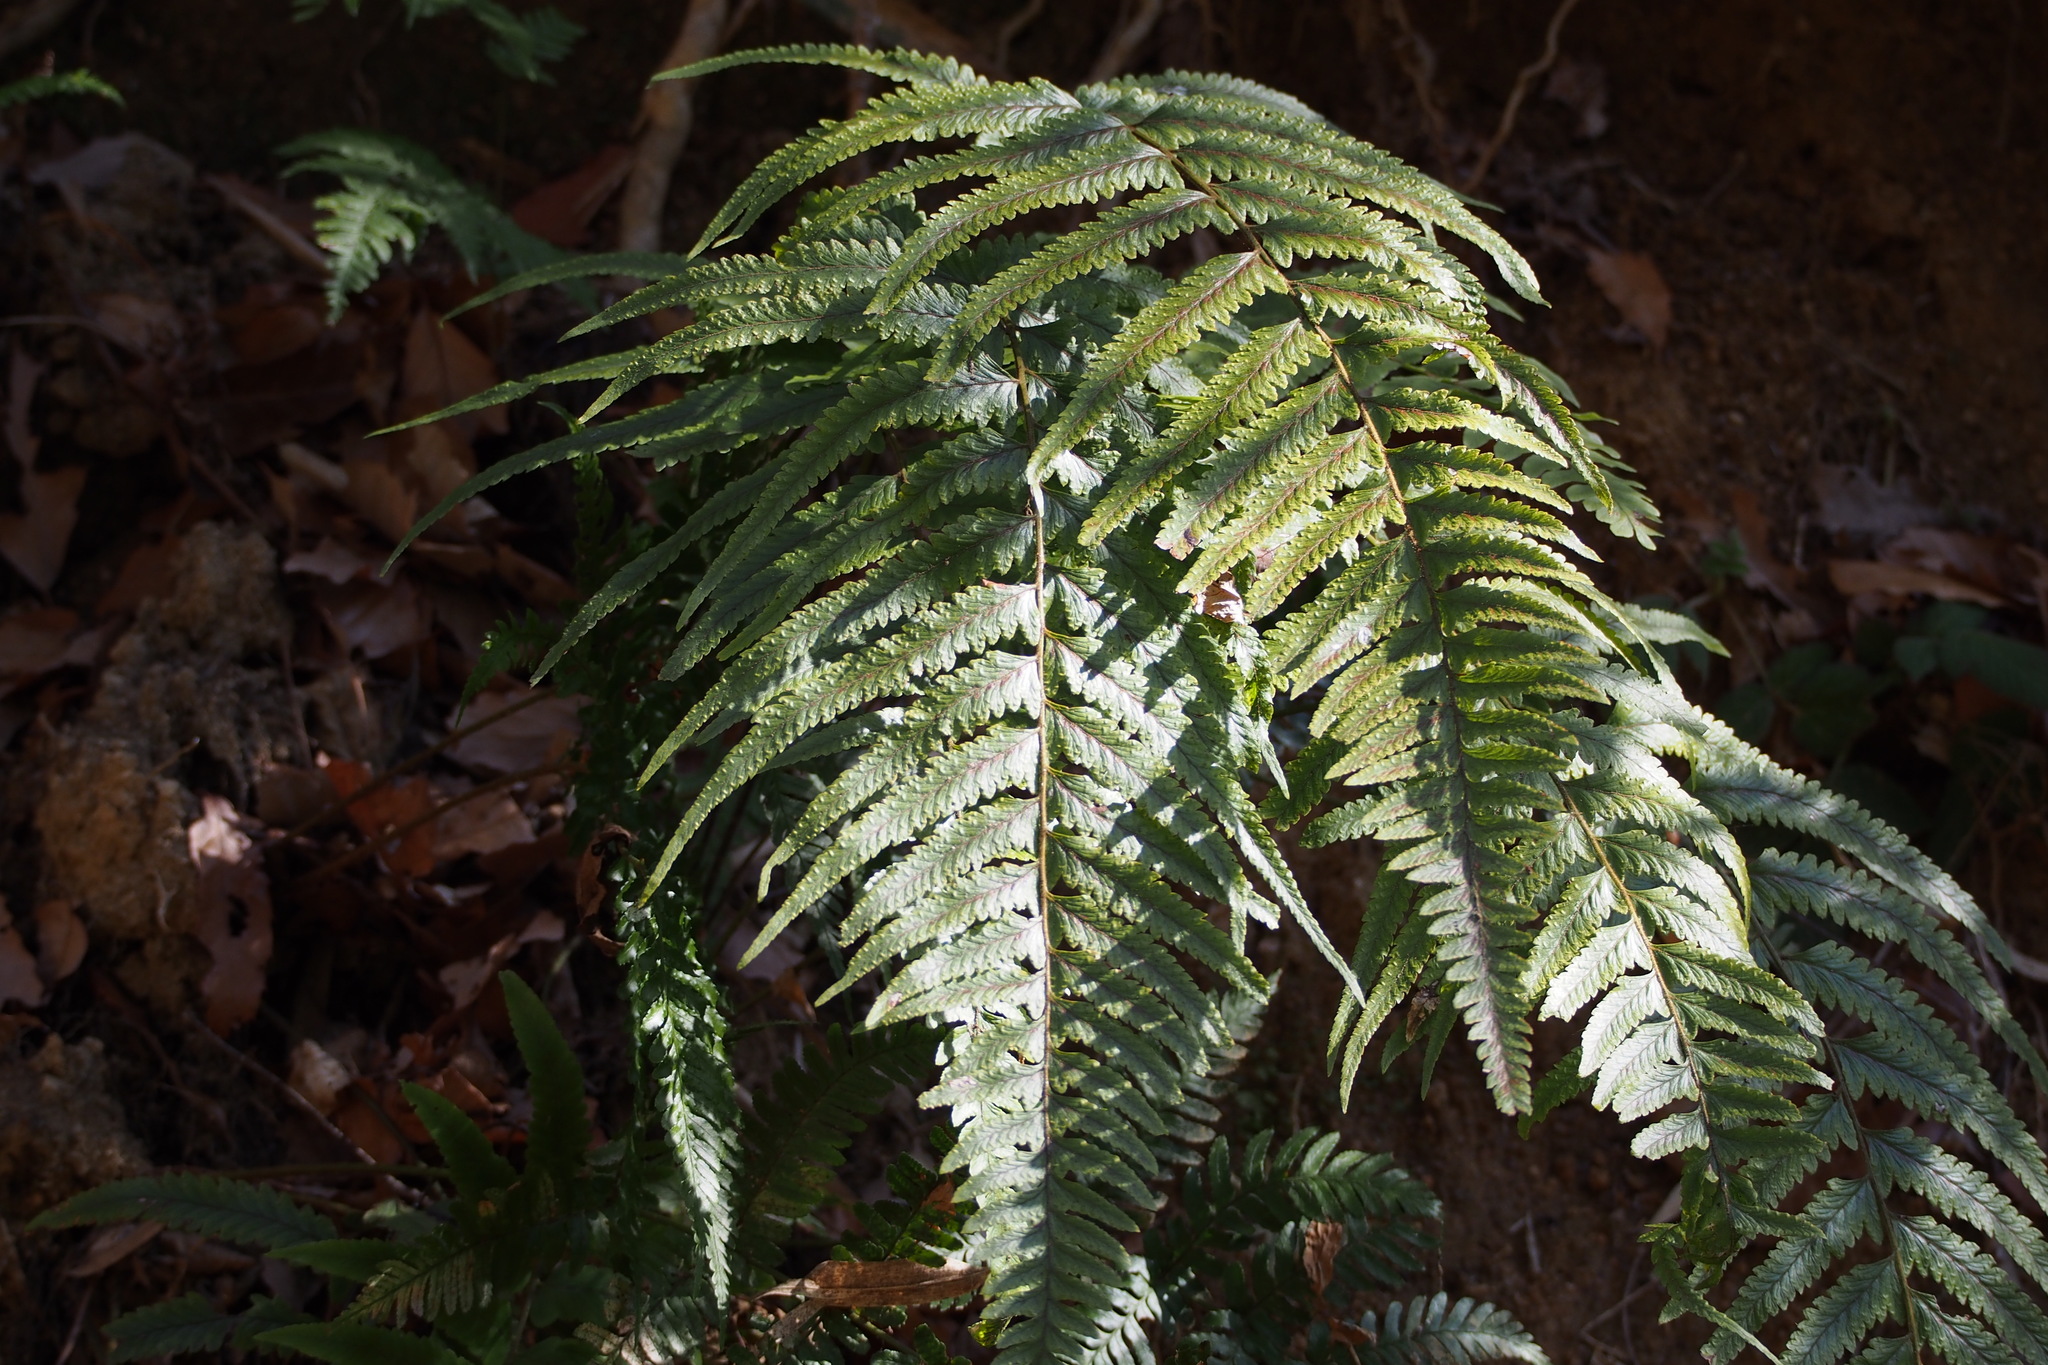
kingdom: Plantae
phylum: Tracheophyta
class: Polypodiopsida
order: Polypodiales
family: Dennstaedtiaceae
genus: Microlepia
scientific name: Microlepia marginata
